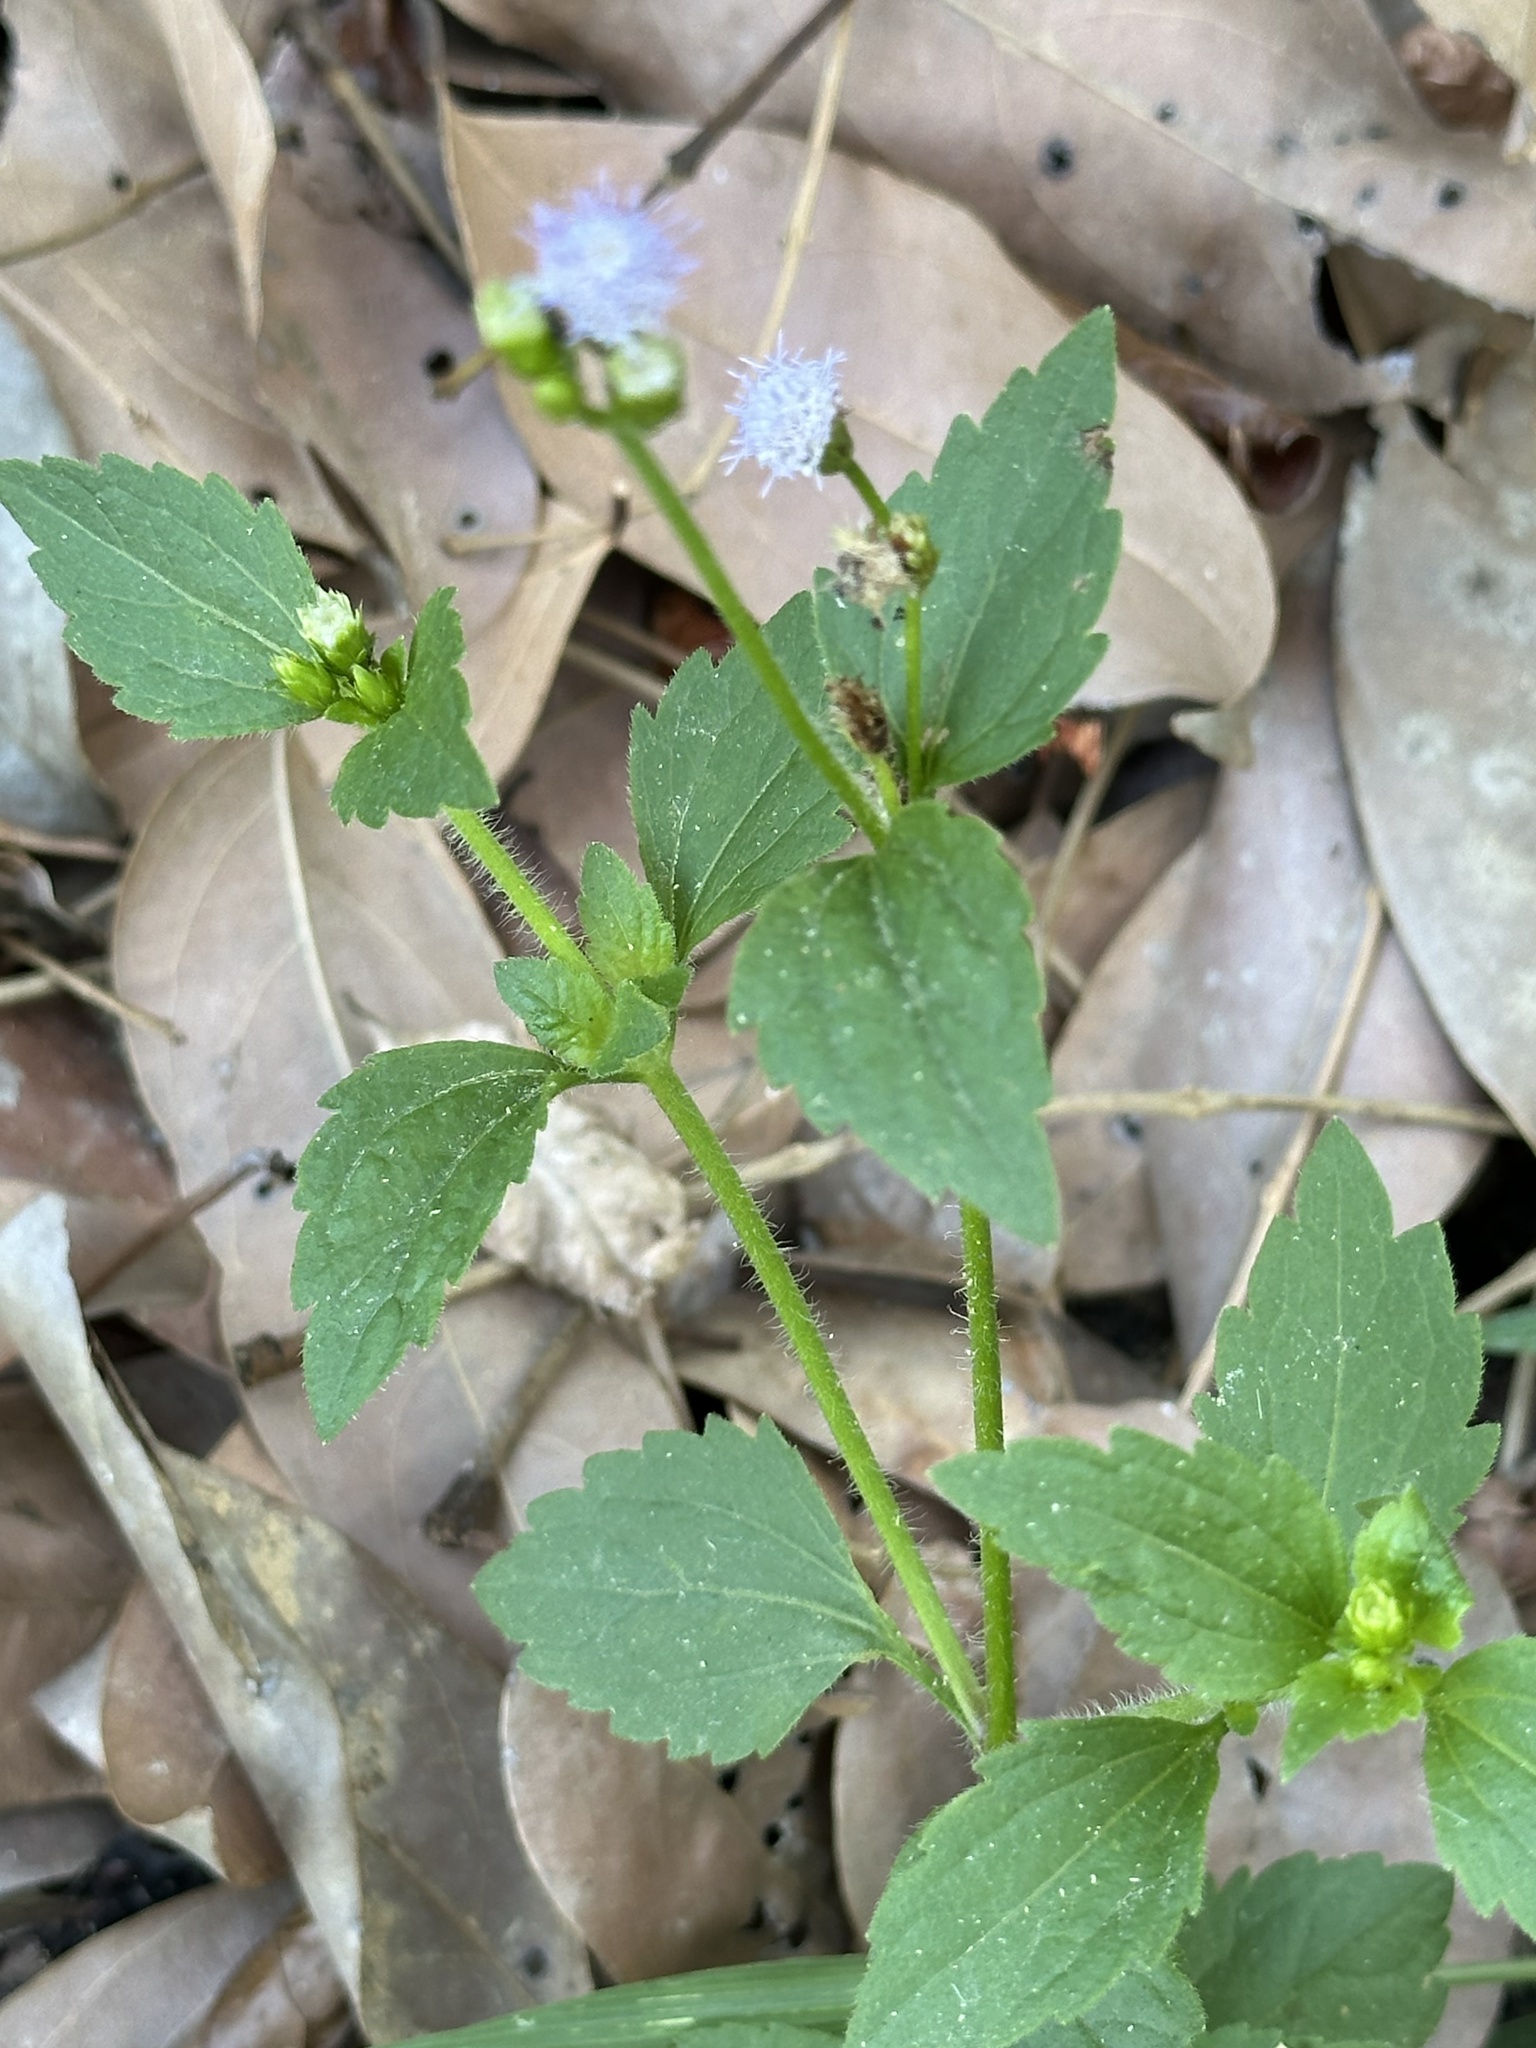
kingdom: Plantae
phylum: Tracheophyta
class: Magnoliopsida
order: Asterales
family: Asteraceae
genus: Praxelis
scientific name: Praxelis clematidea
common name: Praxelis
